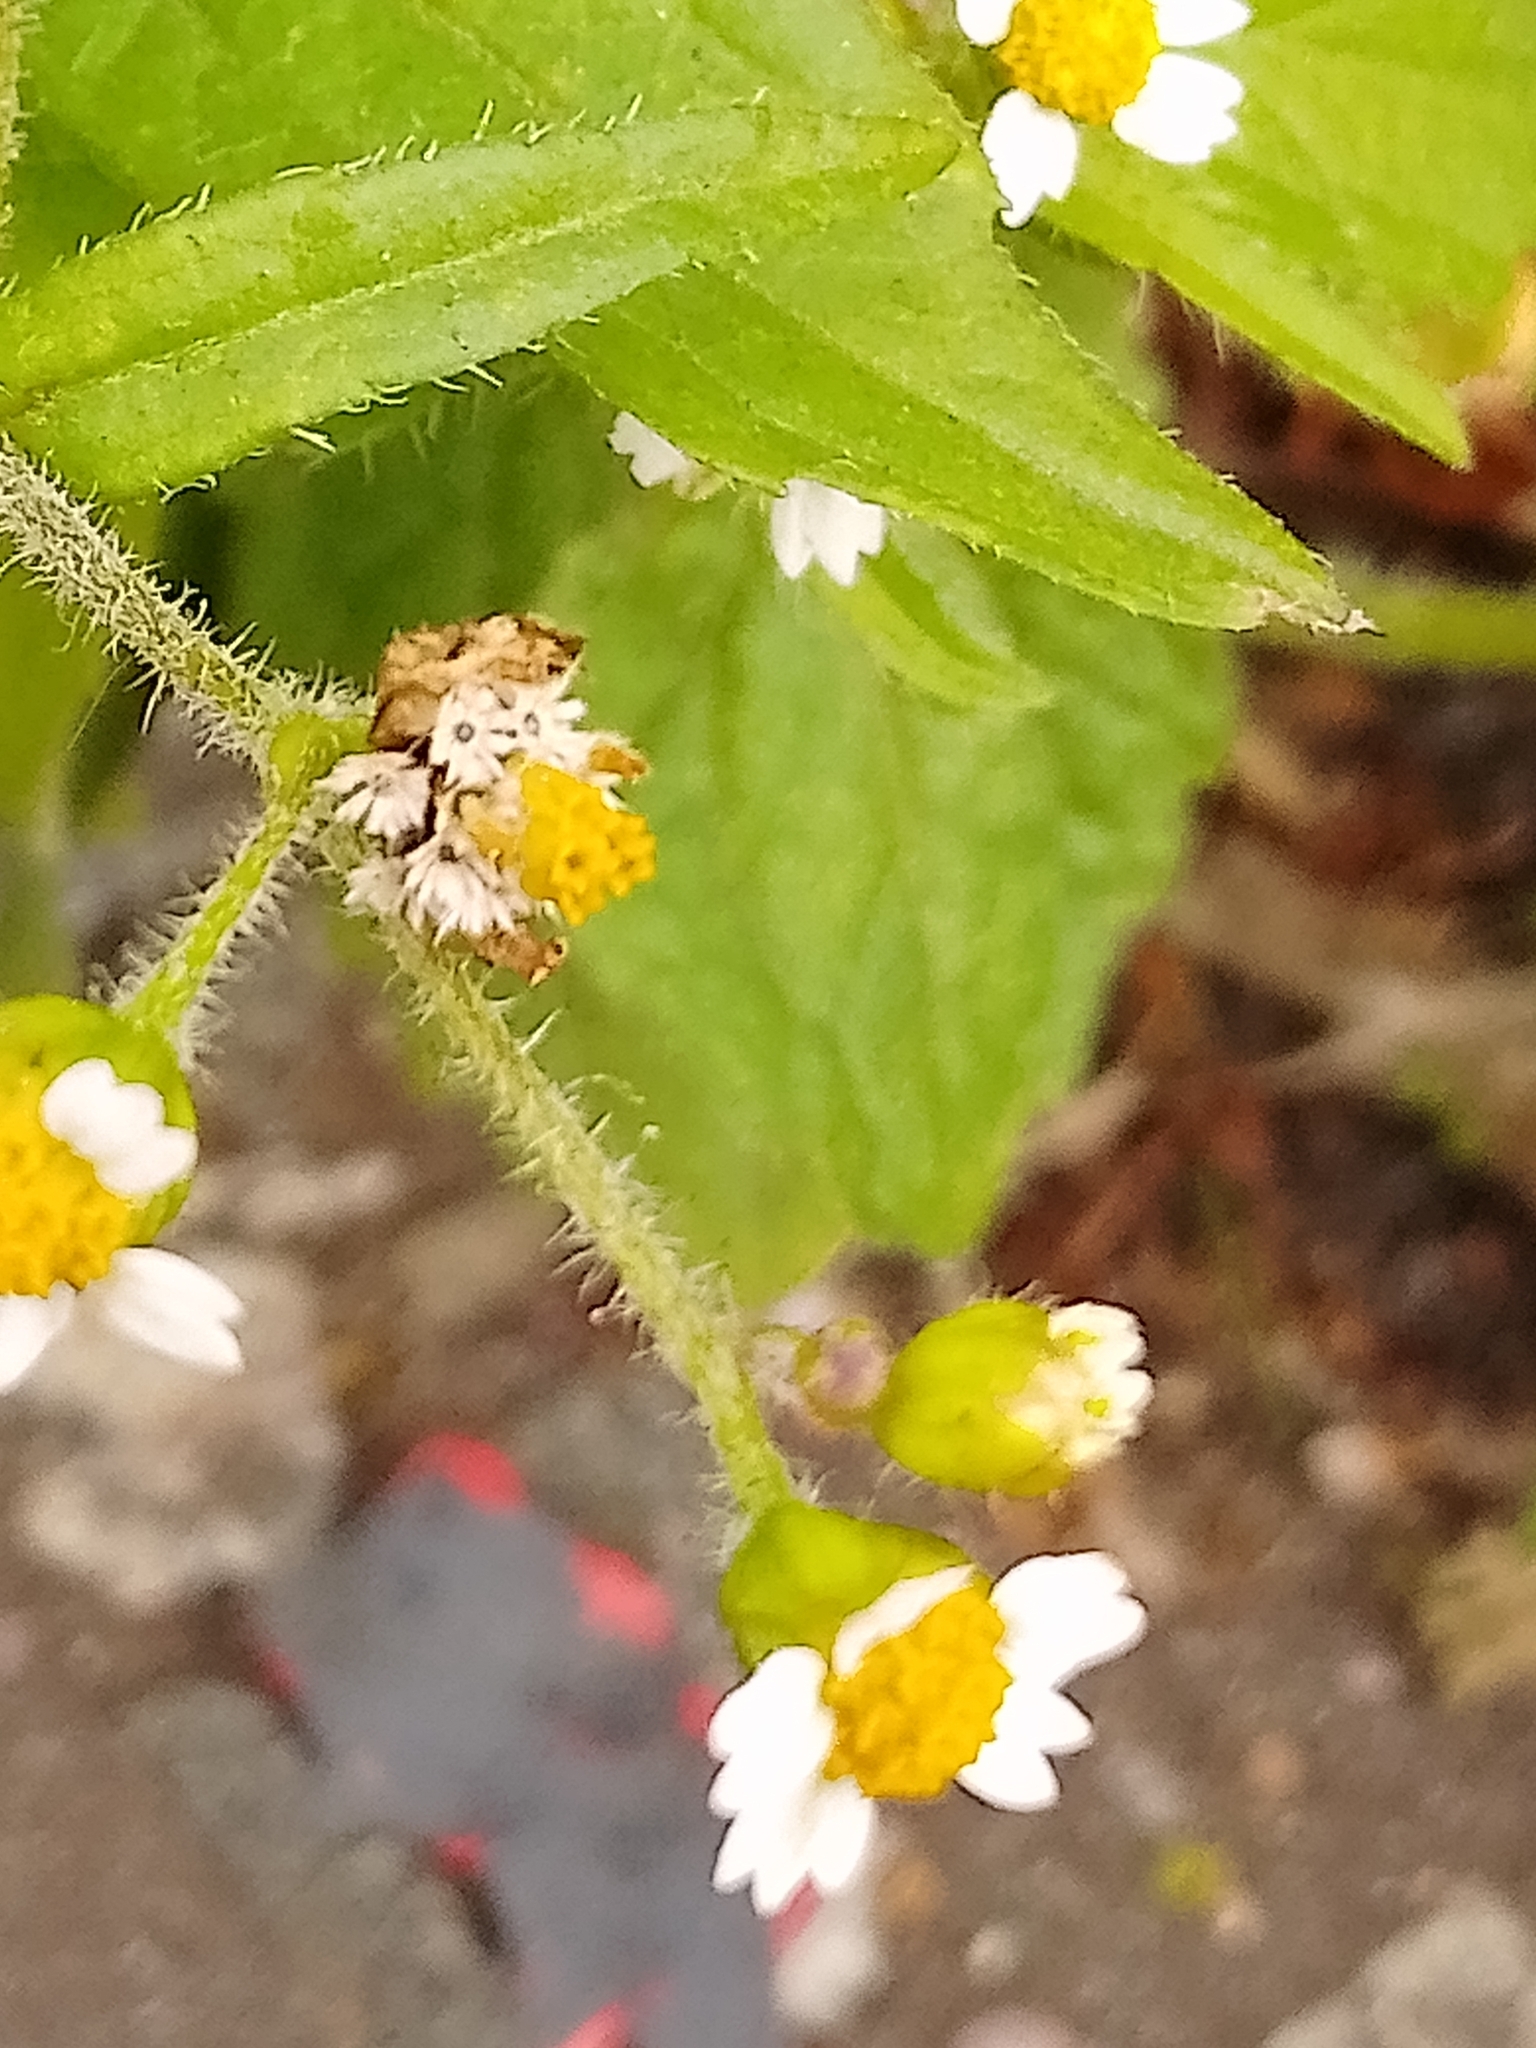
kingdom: Plantae
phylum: Tracheophyta
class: Magnoliopsida
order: Asterales
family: Asteraceae
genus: Galinsoga
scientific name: Galinsoga quadriradiata
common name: Shaggy soldier
